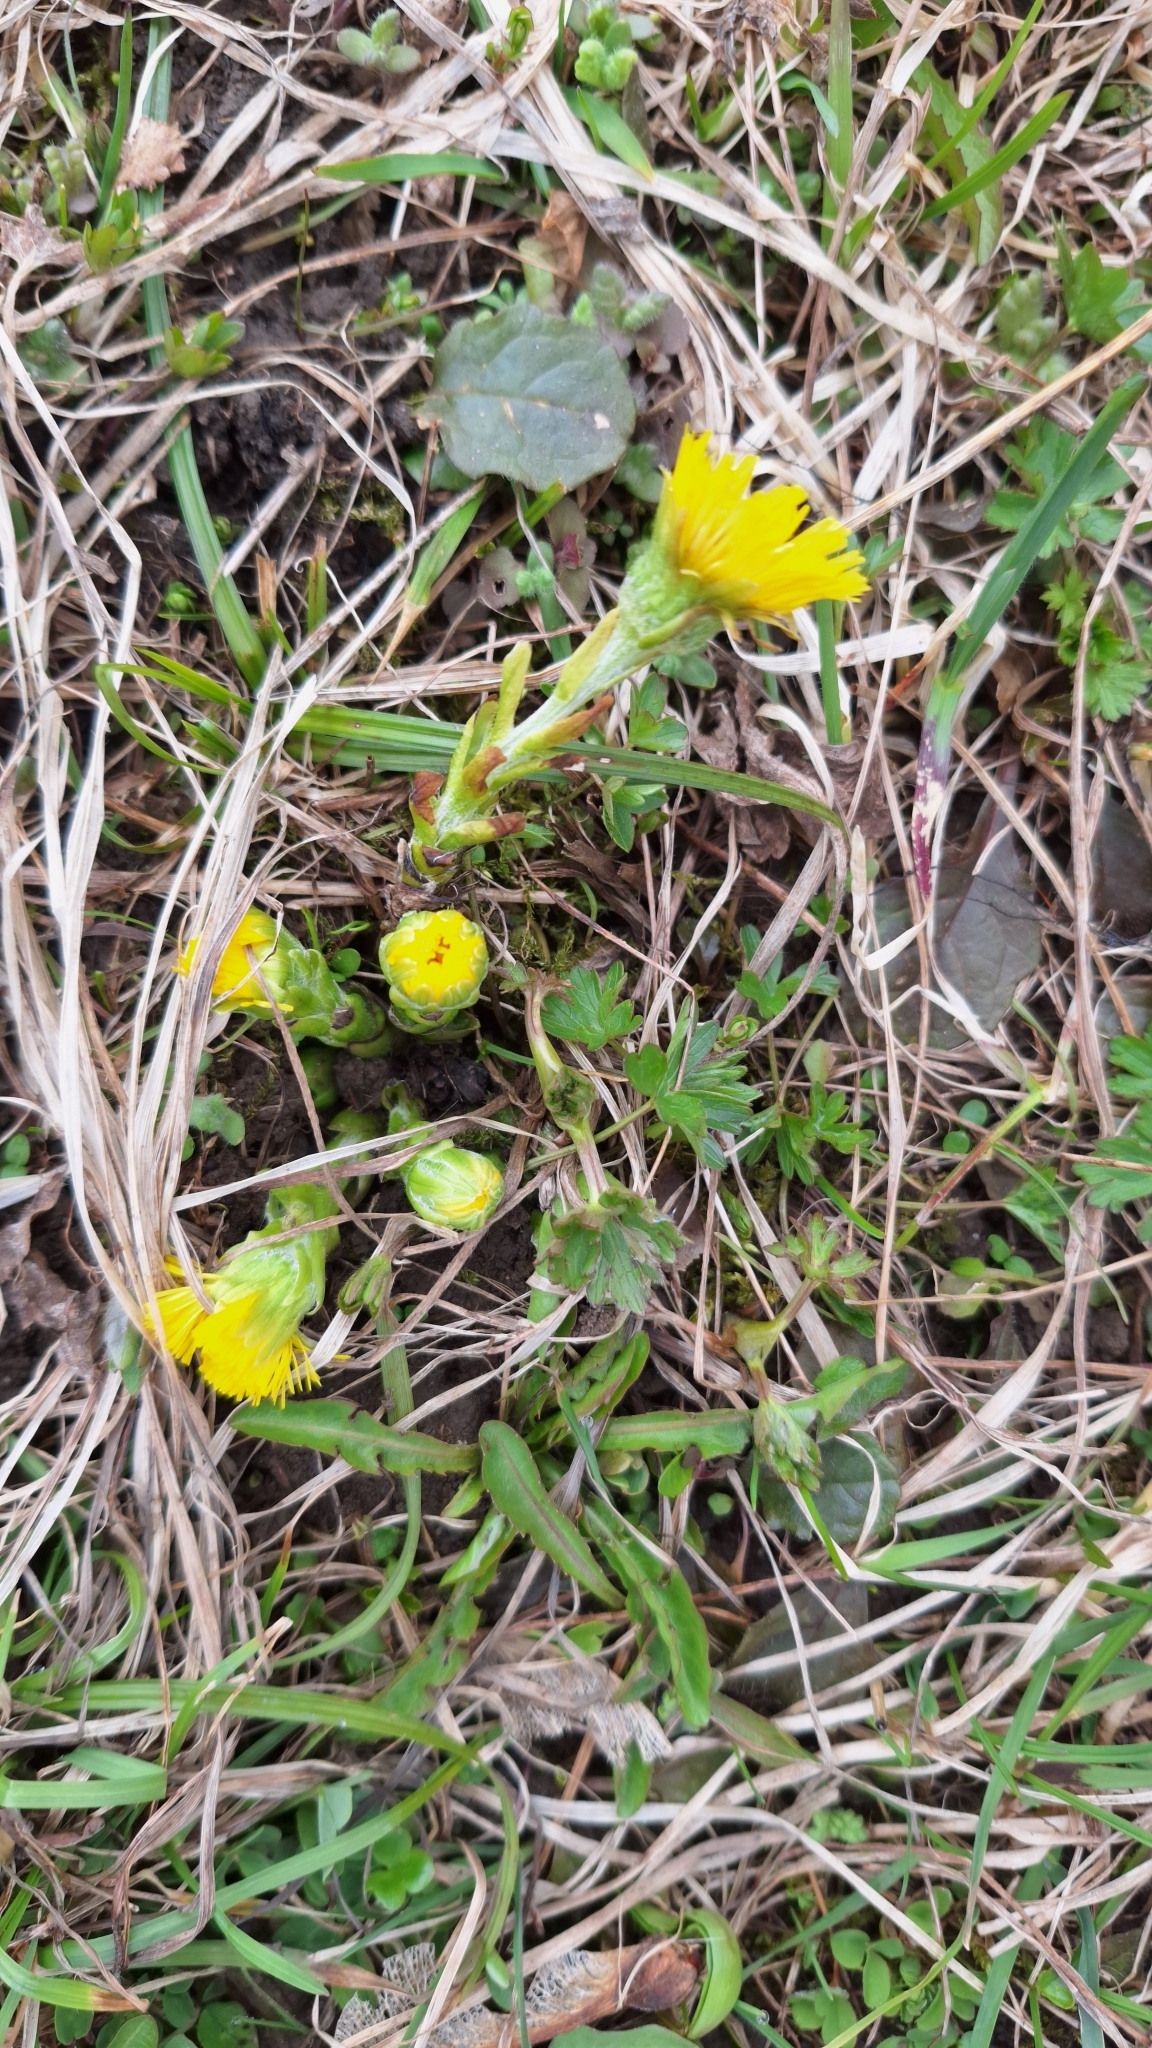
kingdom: Plantae
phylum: Tracheophyta
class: Magnoliopsida
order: Asterales
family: Asteraceae
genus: Tussilago
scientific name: Tussilago farfara
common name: Coltsfoot
